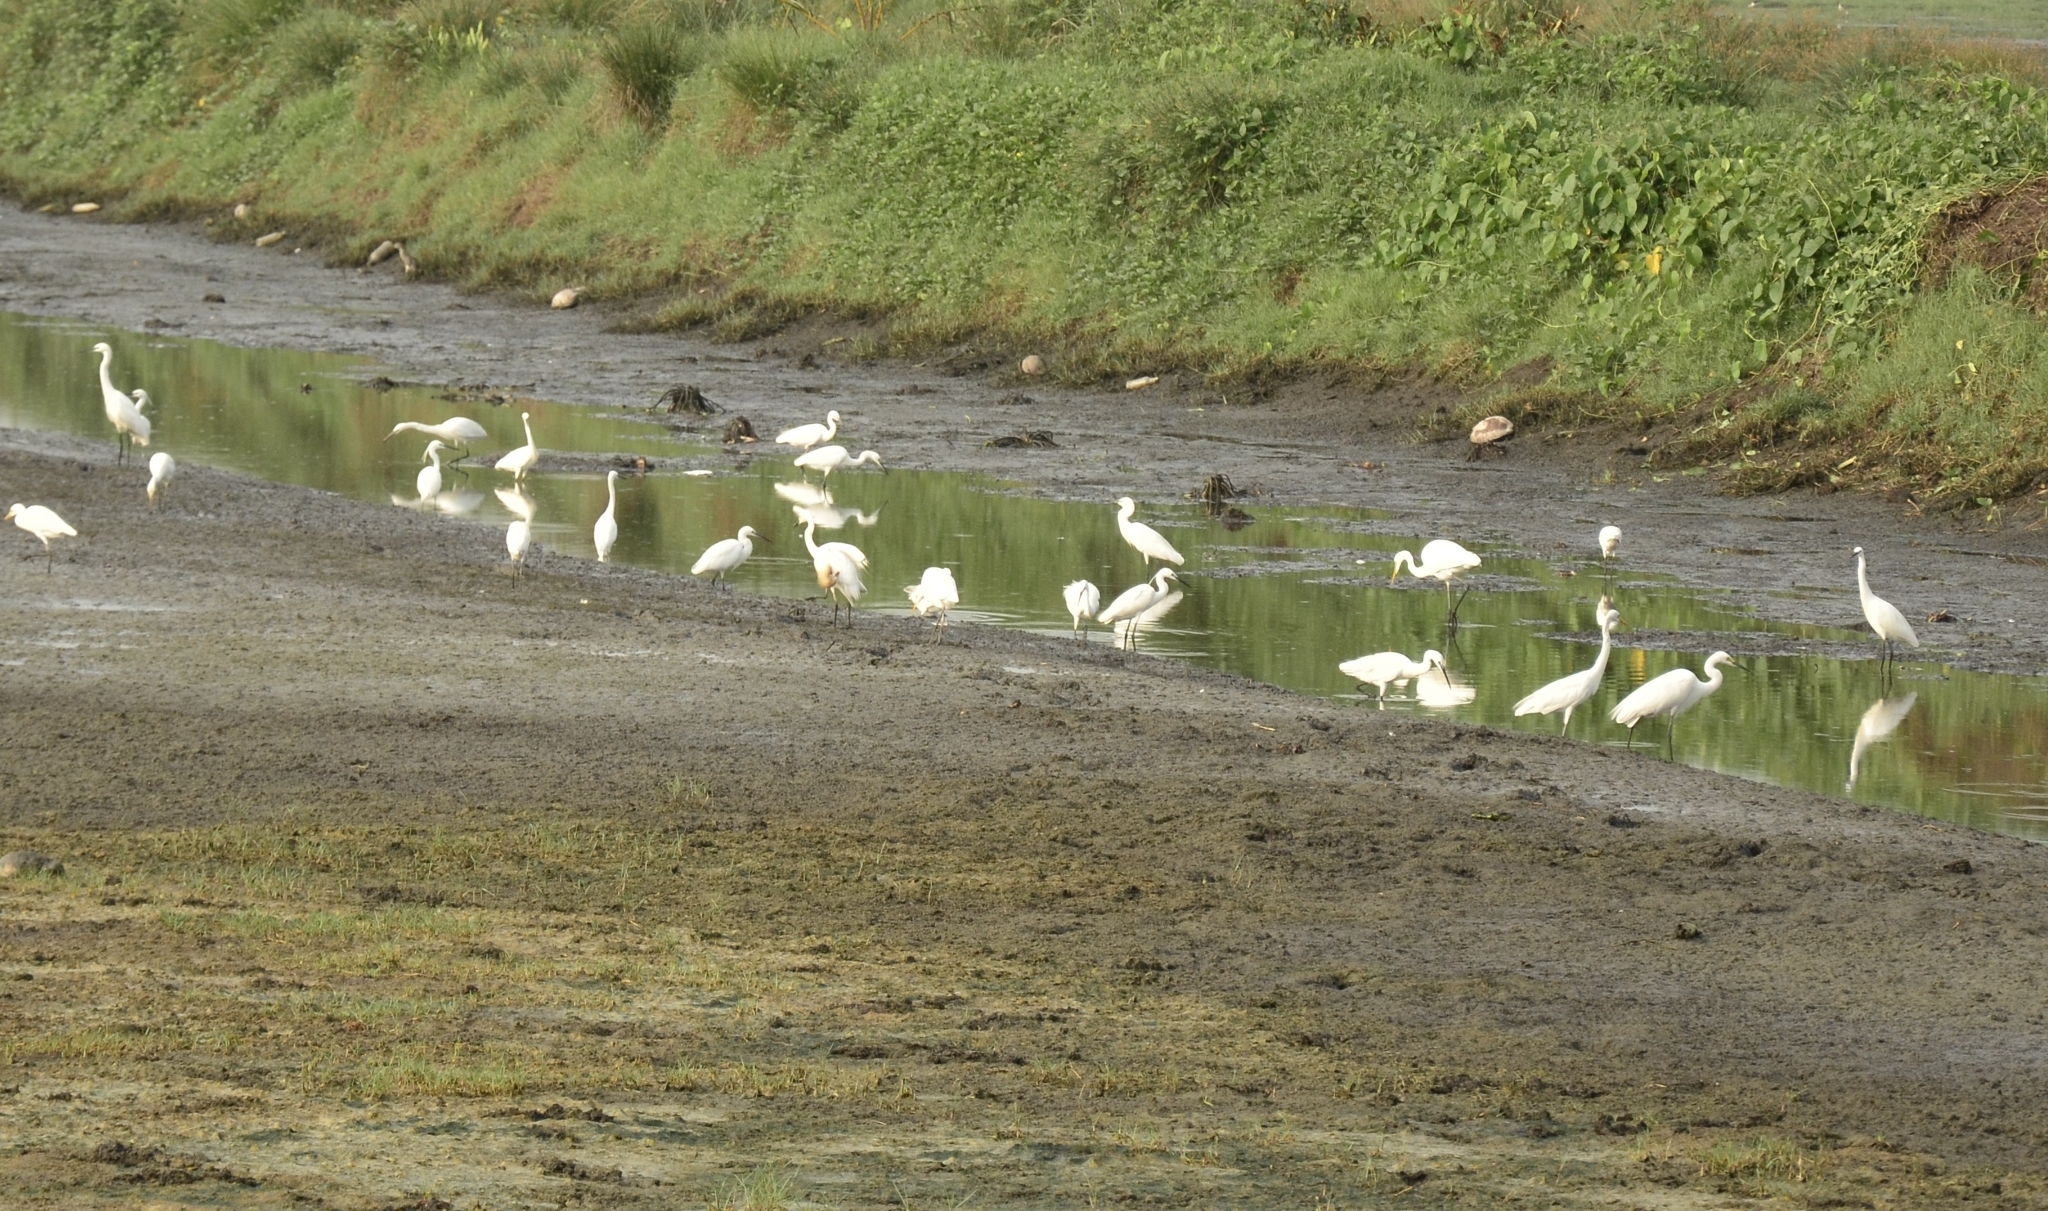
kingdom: Animalia
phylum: Chordata
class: Aves
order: Pelecaniformes
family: Ardeidae
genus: Egretta
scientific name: Egretta garzetta
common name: Little egret
